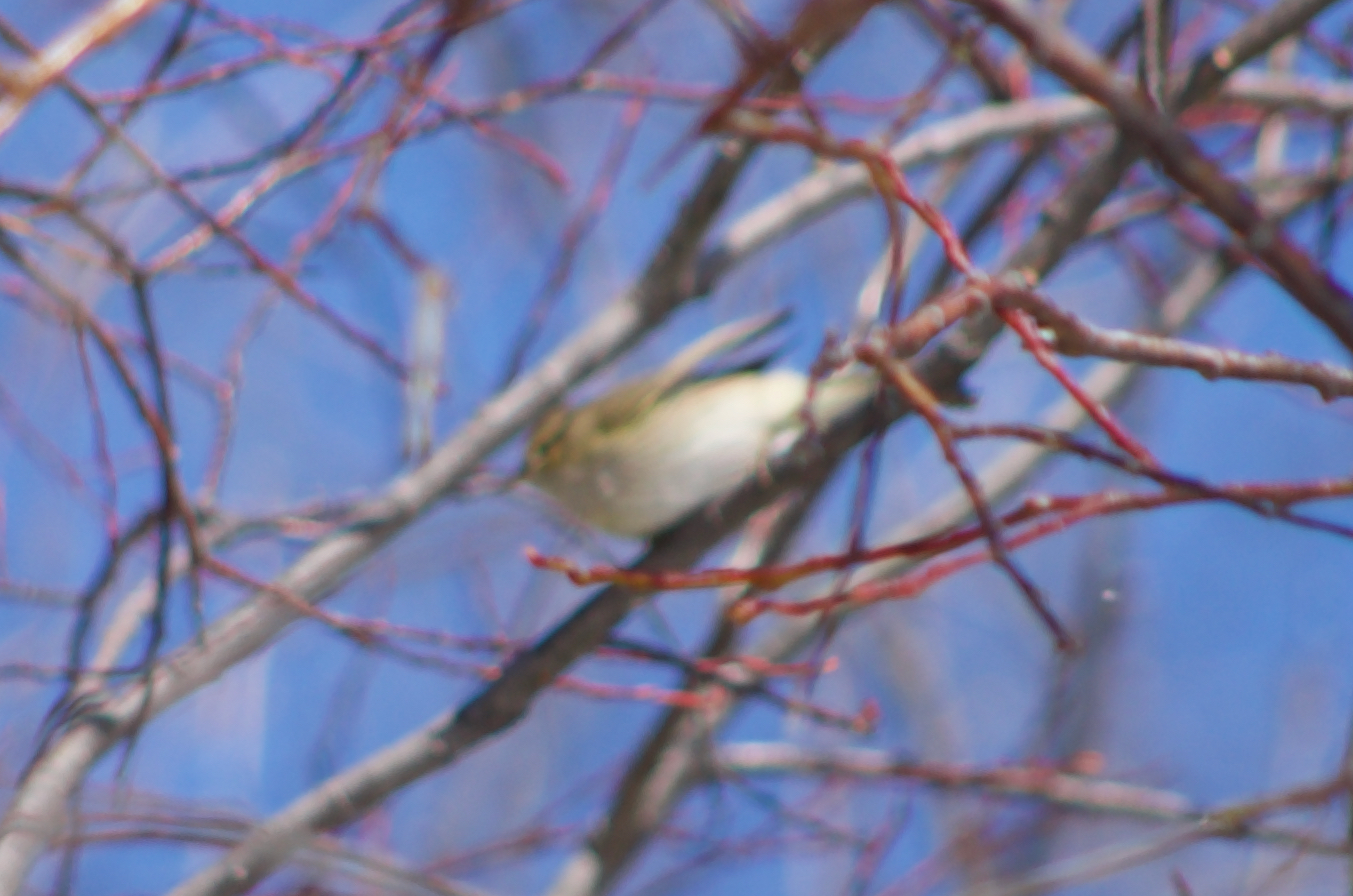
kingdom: Animalia
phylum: Chordata
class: Aves
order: Passeriformes
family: Phylloscopidae
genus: Phylloscopus
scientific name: Phylloscopus trochilus
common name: Willow warbler
